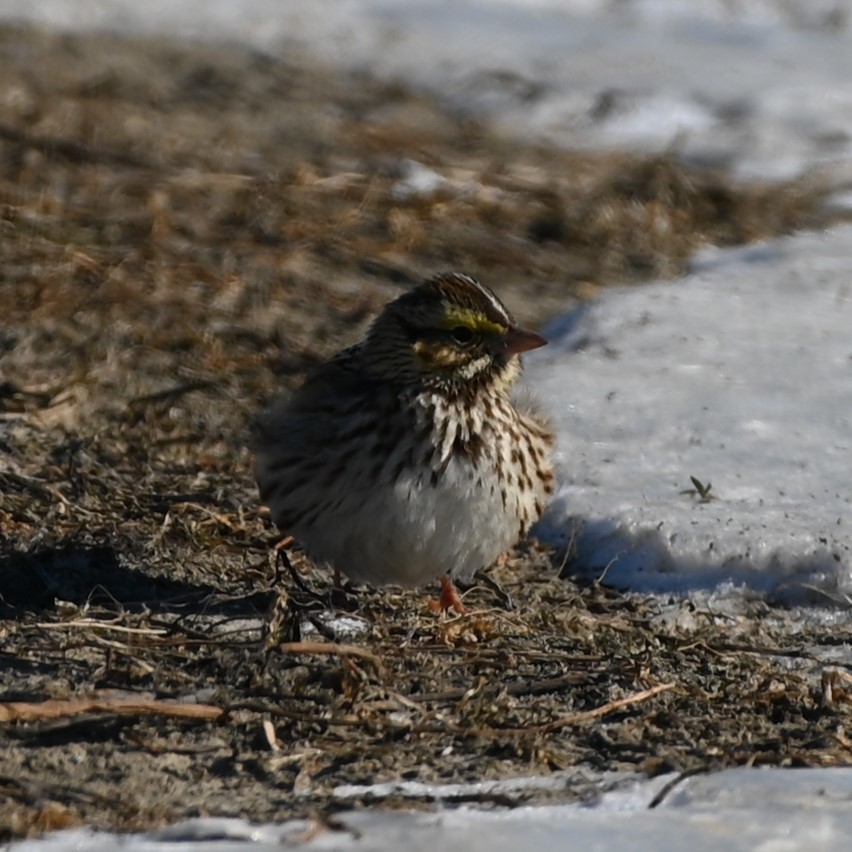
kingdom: Animalia
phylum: Chordata
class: Aves
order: Passeriformes
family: Passerellidae
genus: Passerculus
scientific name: Passerculus sandwichensis
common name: Savannah sparrow
